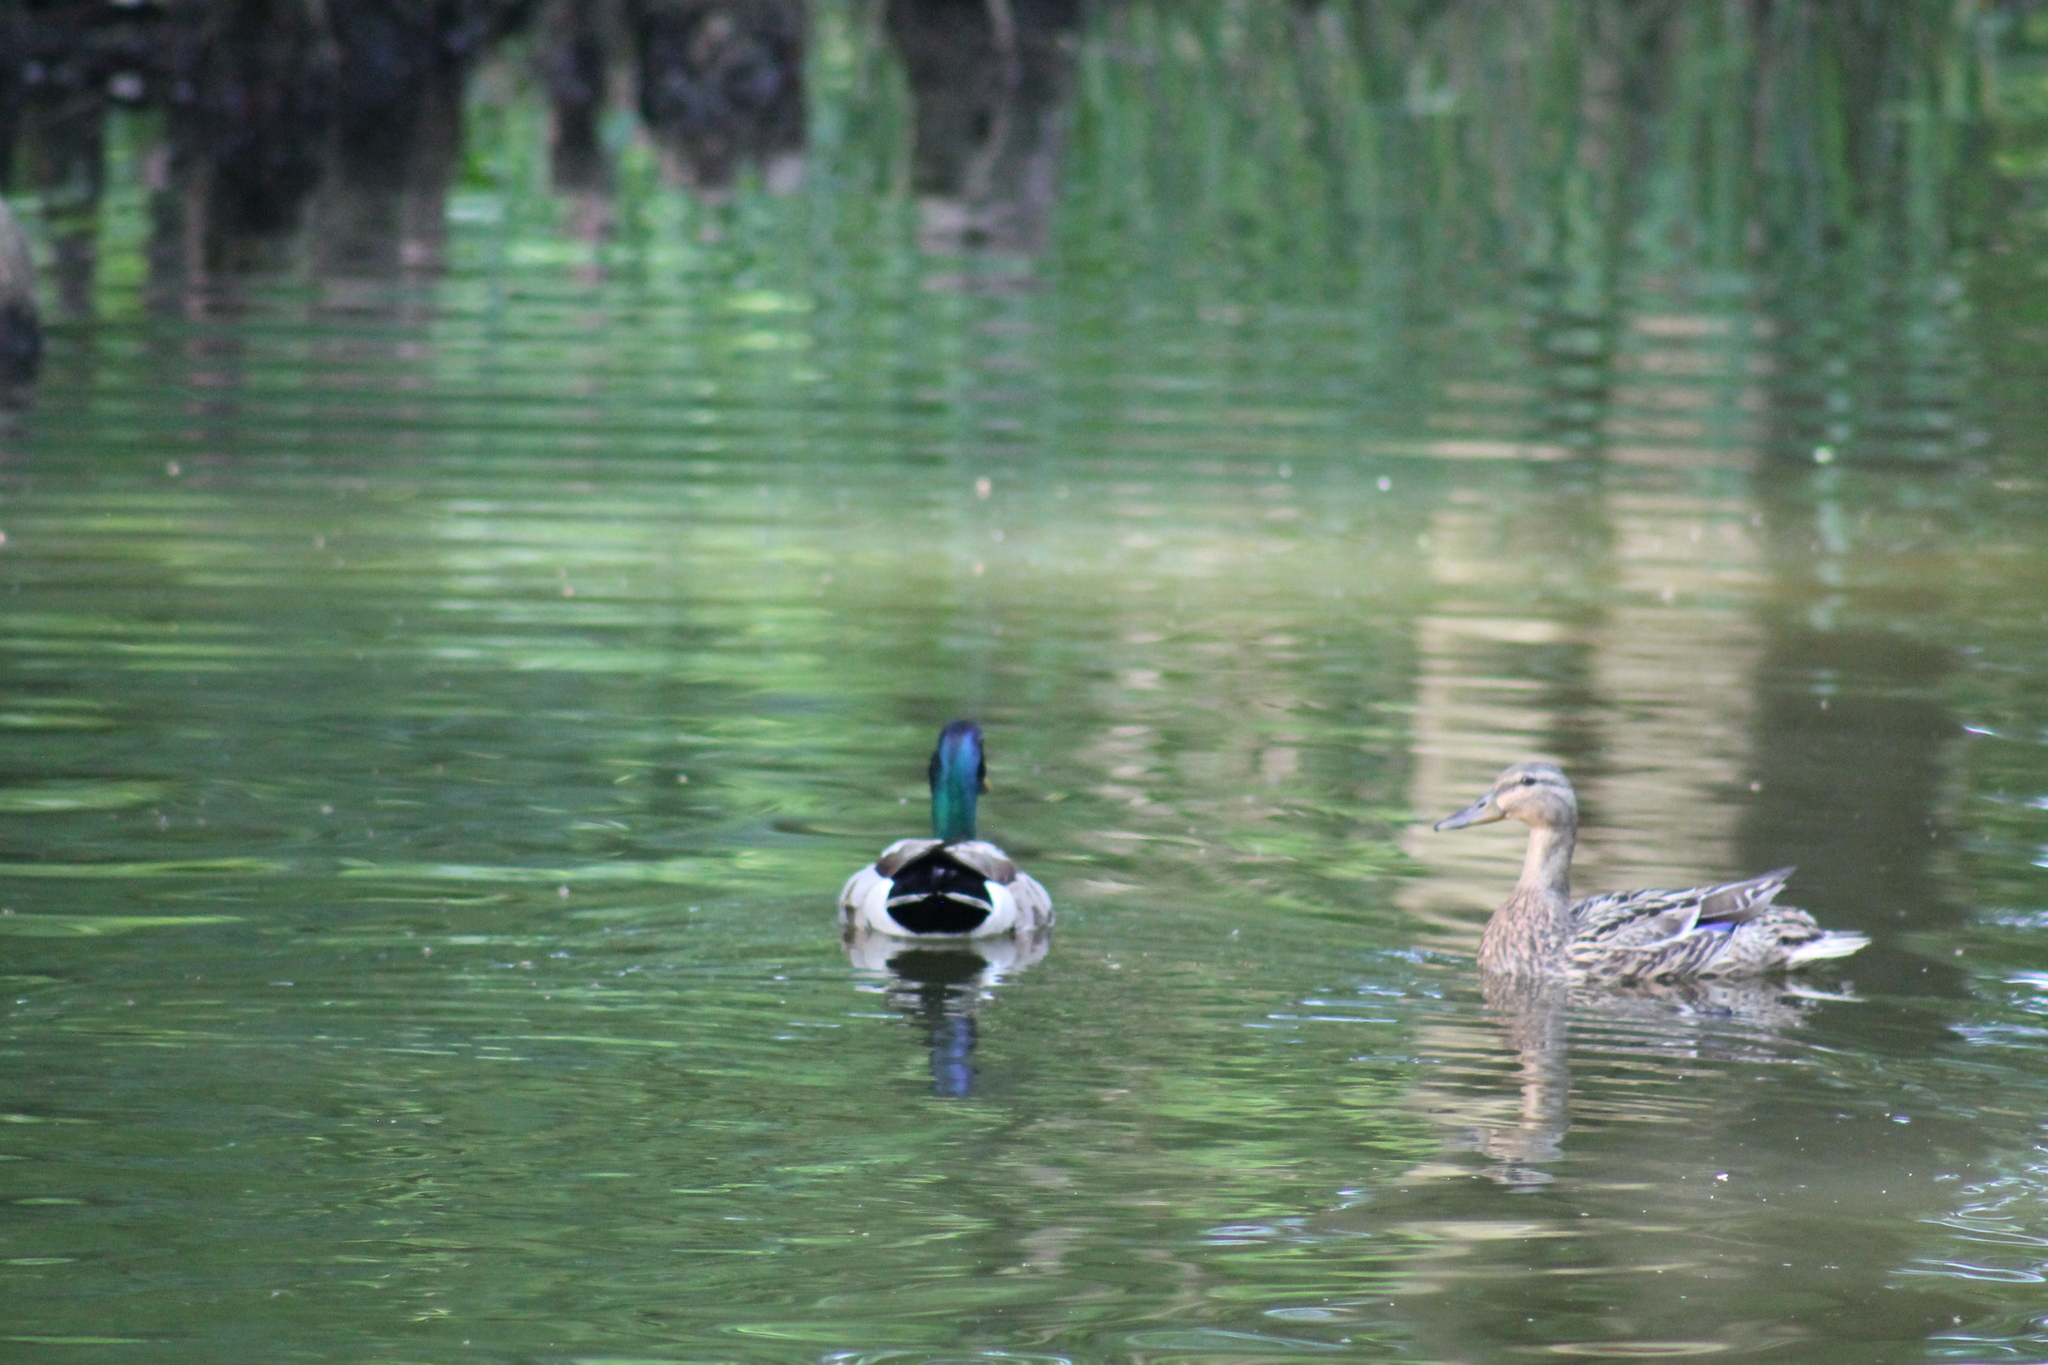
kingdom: Animalia
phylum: Chordata
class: Aves
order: Anseriformes
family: Anatidae
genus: Anas
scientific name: Anas platyrhynchos
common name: Mallard
